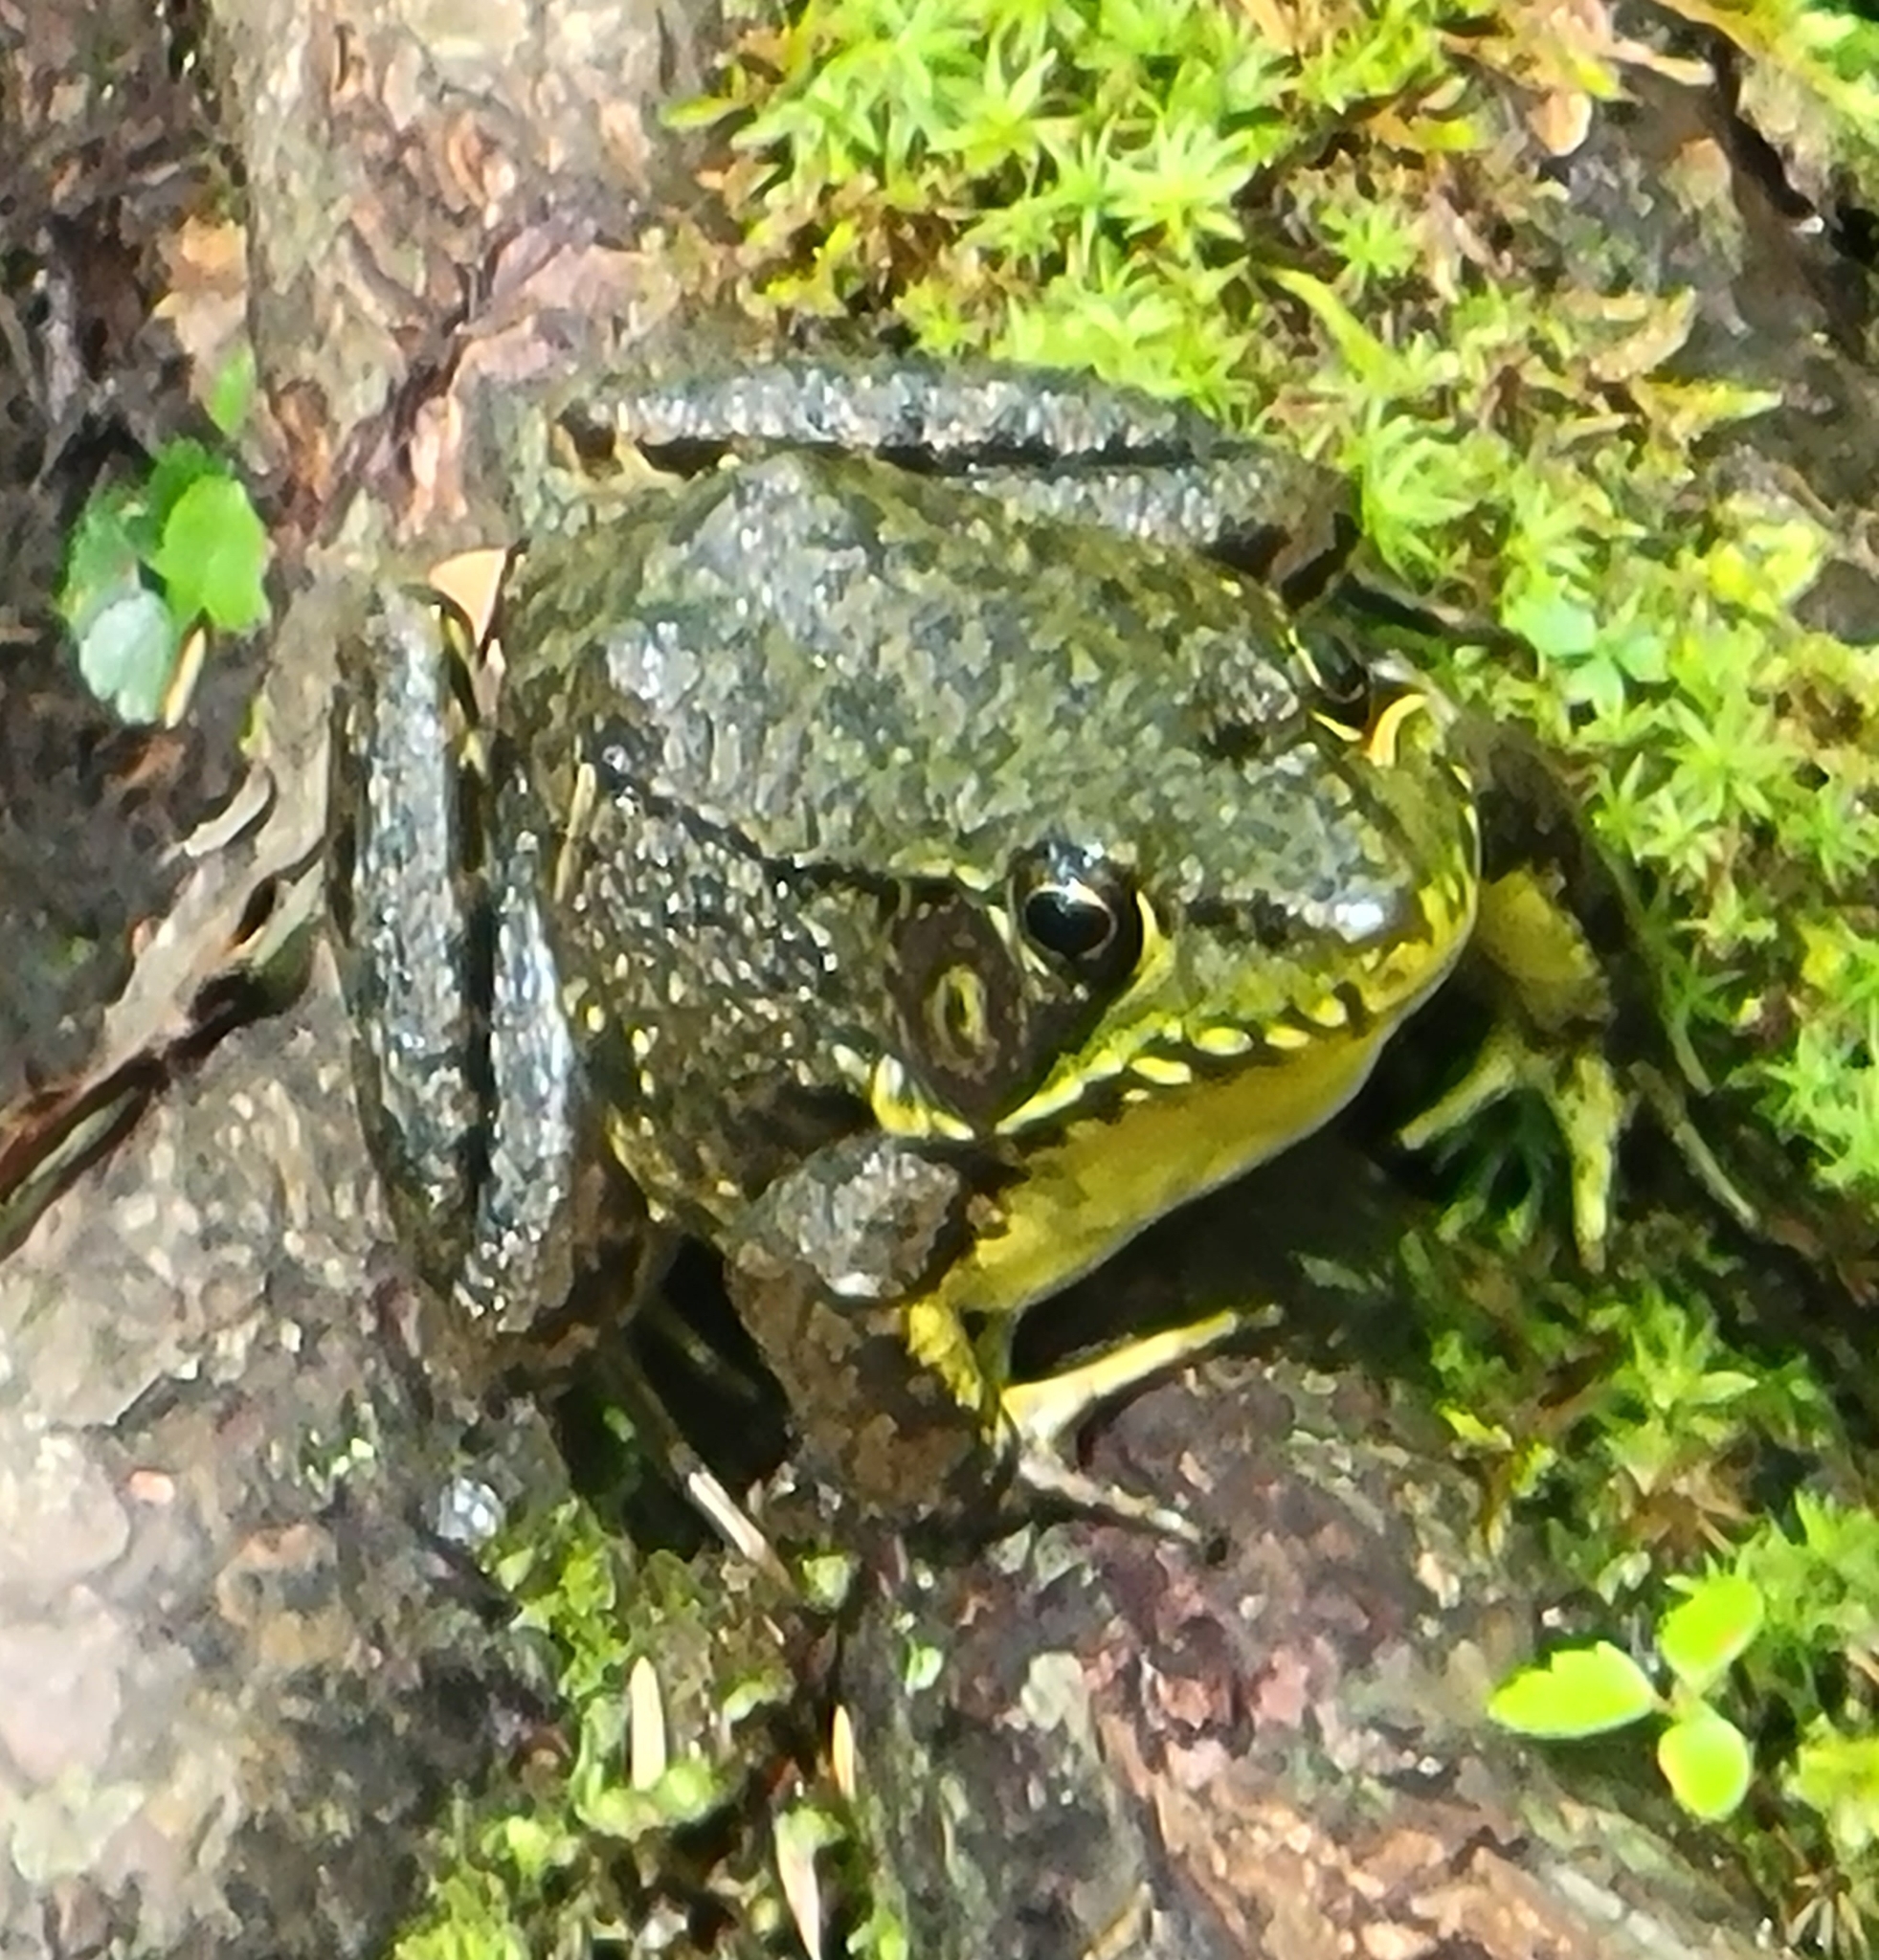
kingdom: Animalia
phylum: Chordata
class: Amphibia
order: Anura
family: Ranidae
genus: Lithobates
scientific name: Lithobates clamitans
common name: Green frog
